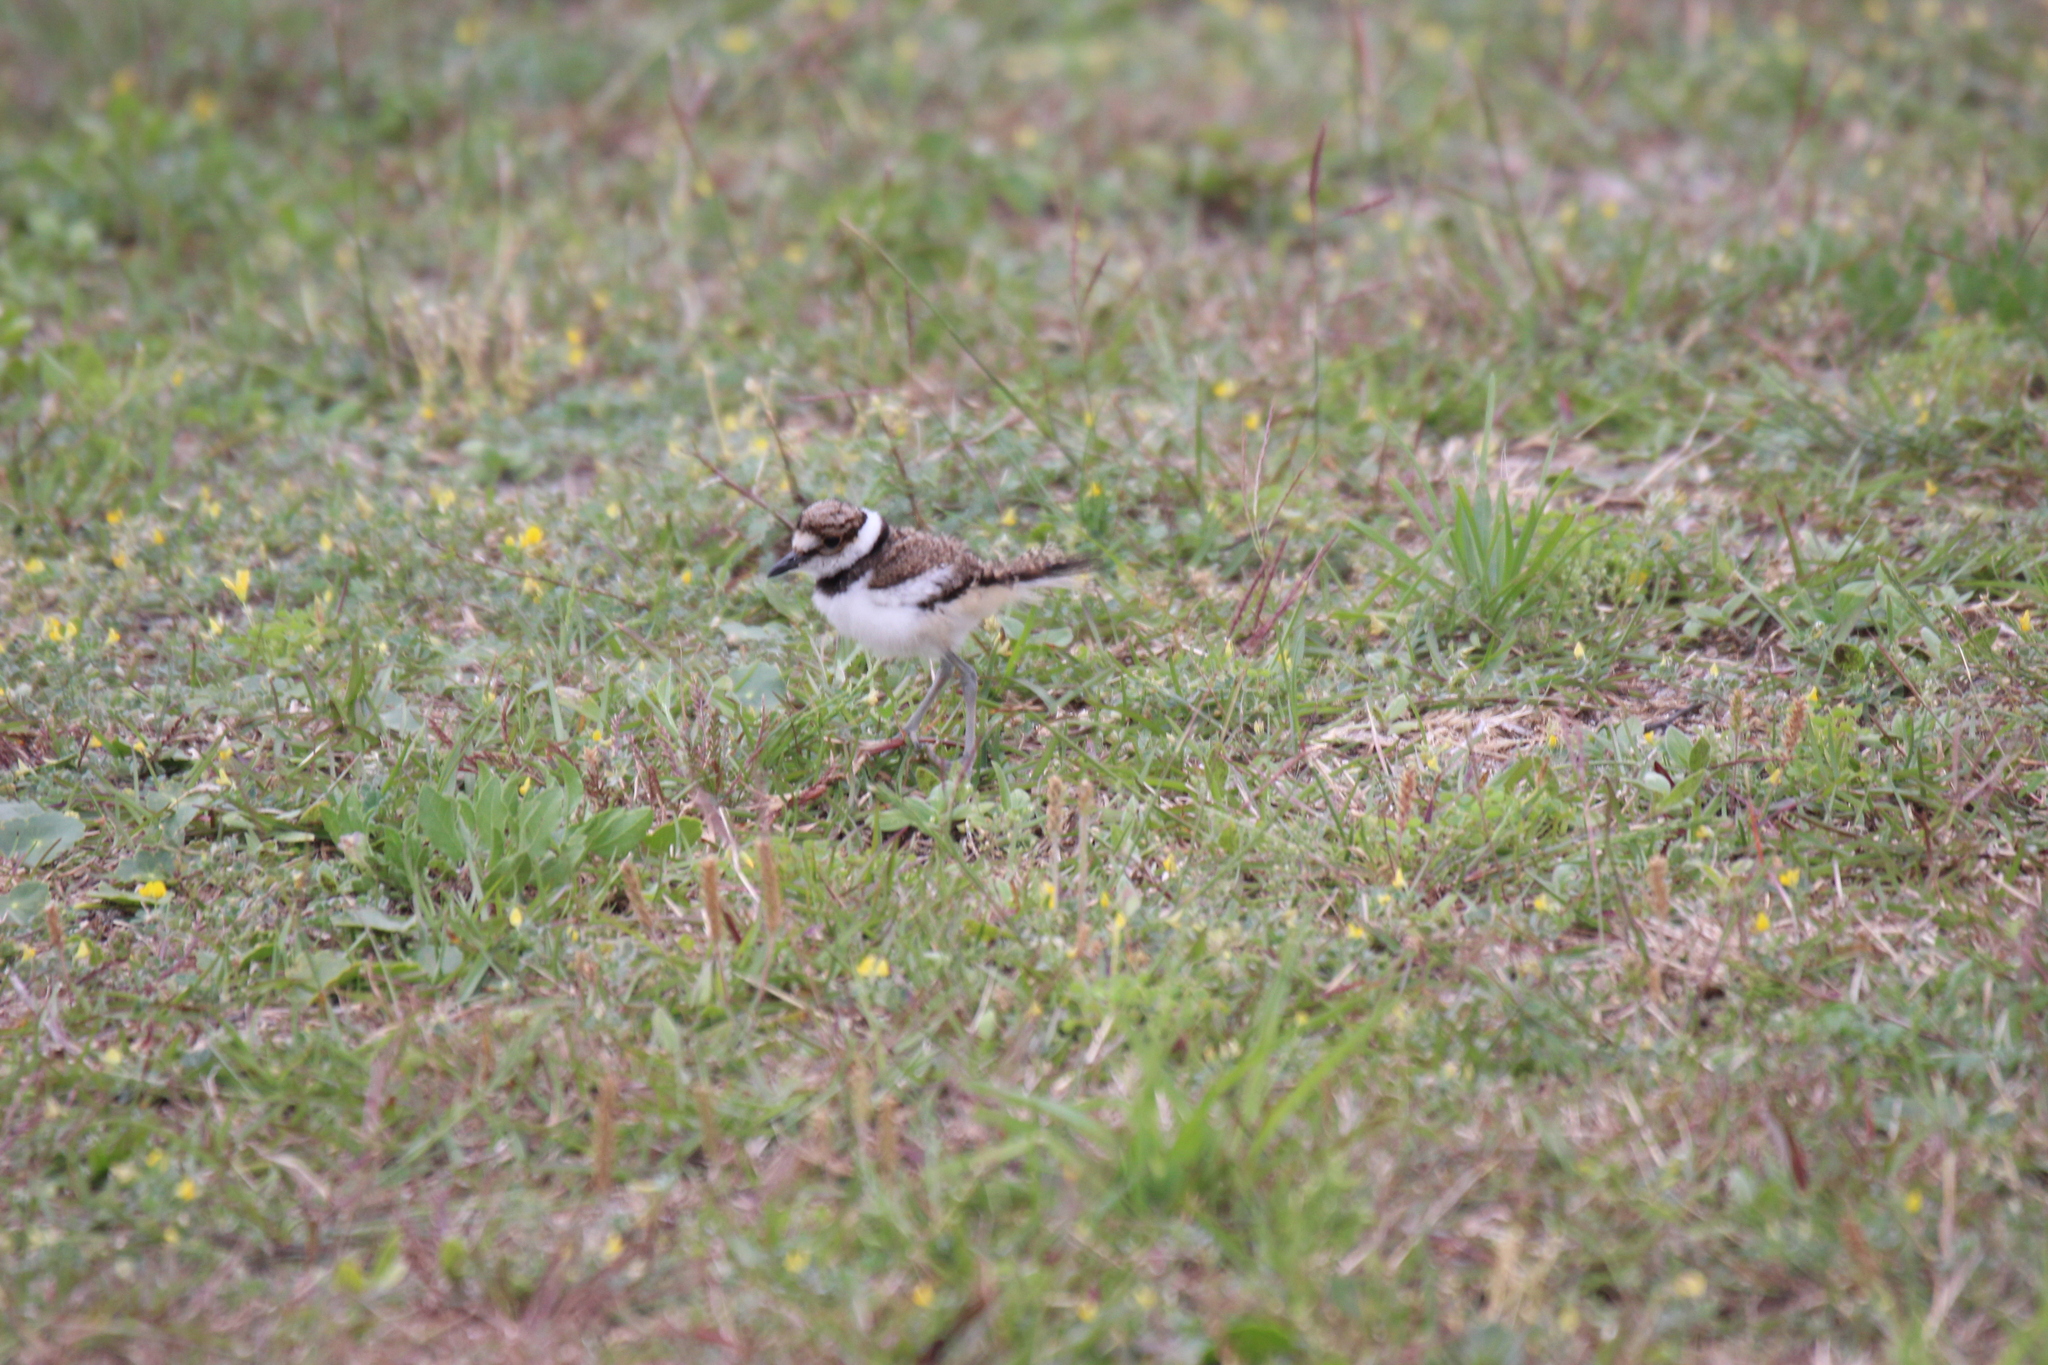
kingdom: Animalia
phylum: Chordata
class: Aves
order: Charadriiformes
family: Charadriidae
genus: Charadrius
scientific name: Charadrius vociferus
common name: Killdeer
